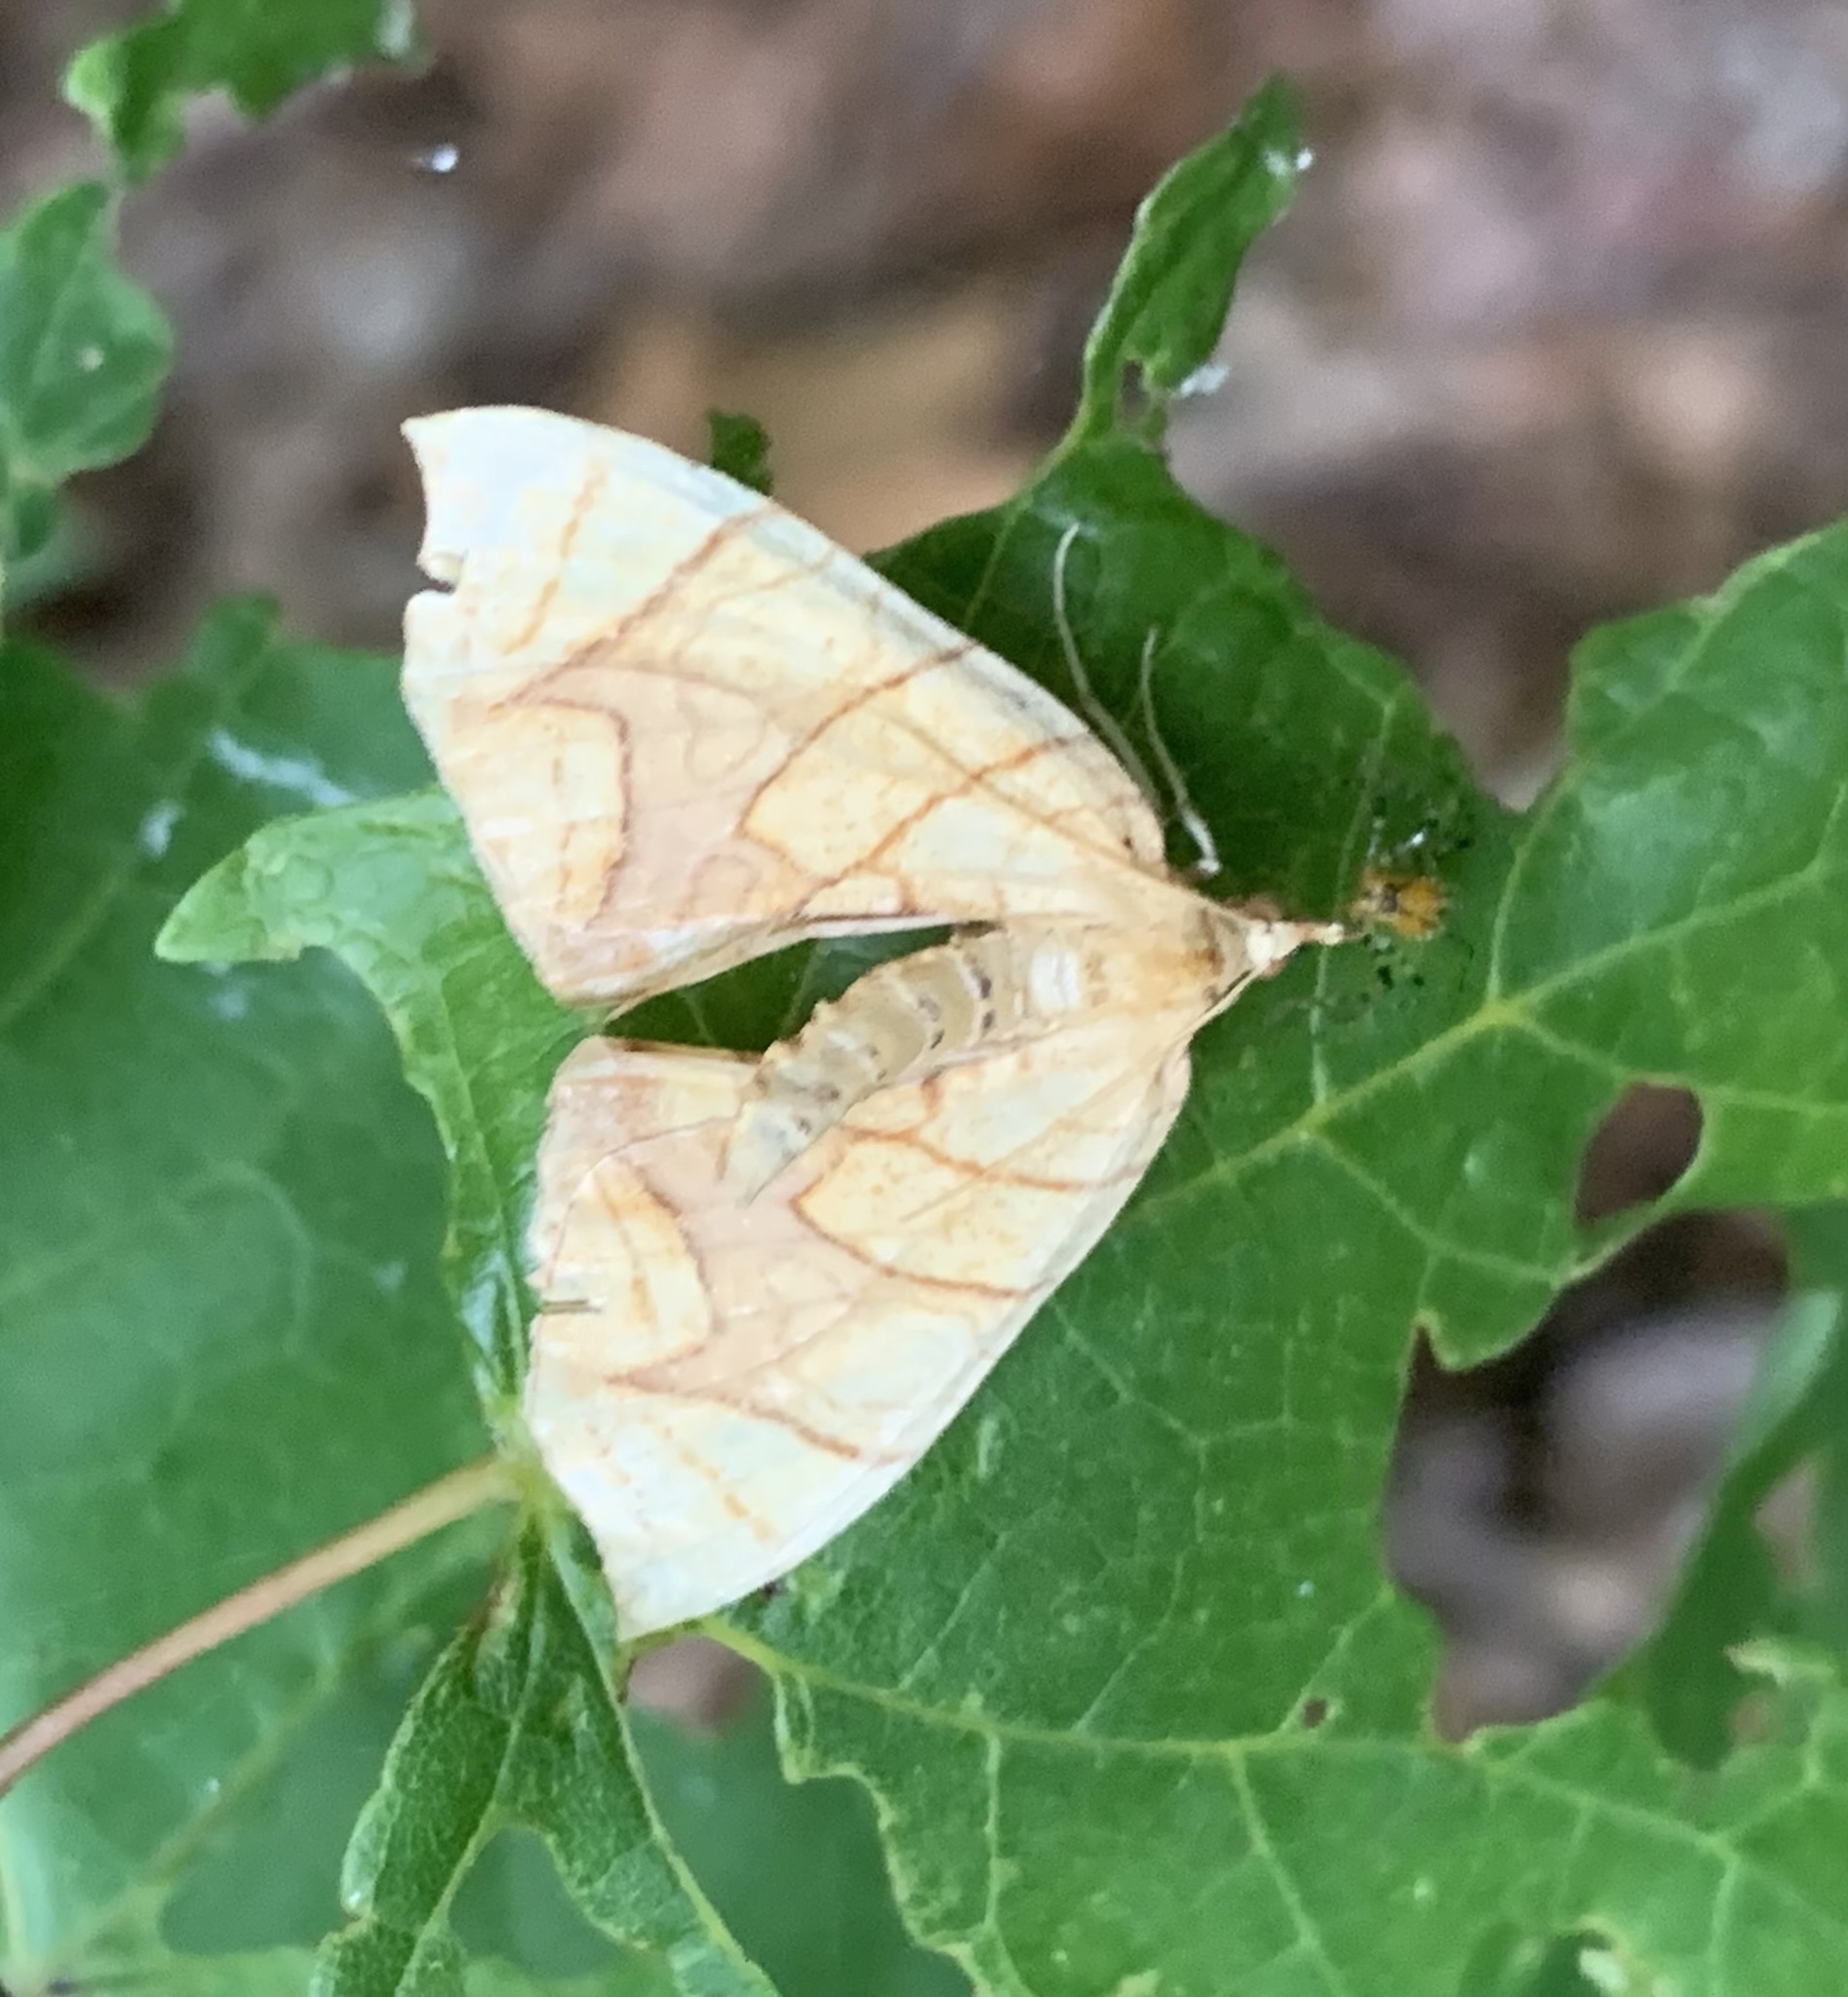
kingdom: Animalia
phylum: Arthropoda
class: Insecta
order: Lepidoptera
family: Geometridae
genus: Eulithis
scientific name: Eulithis
